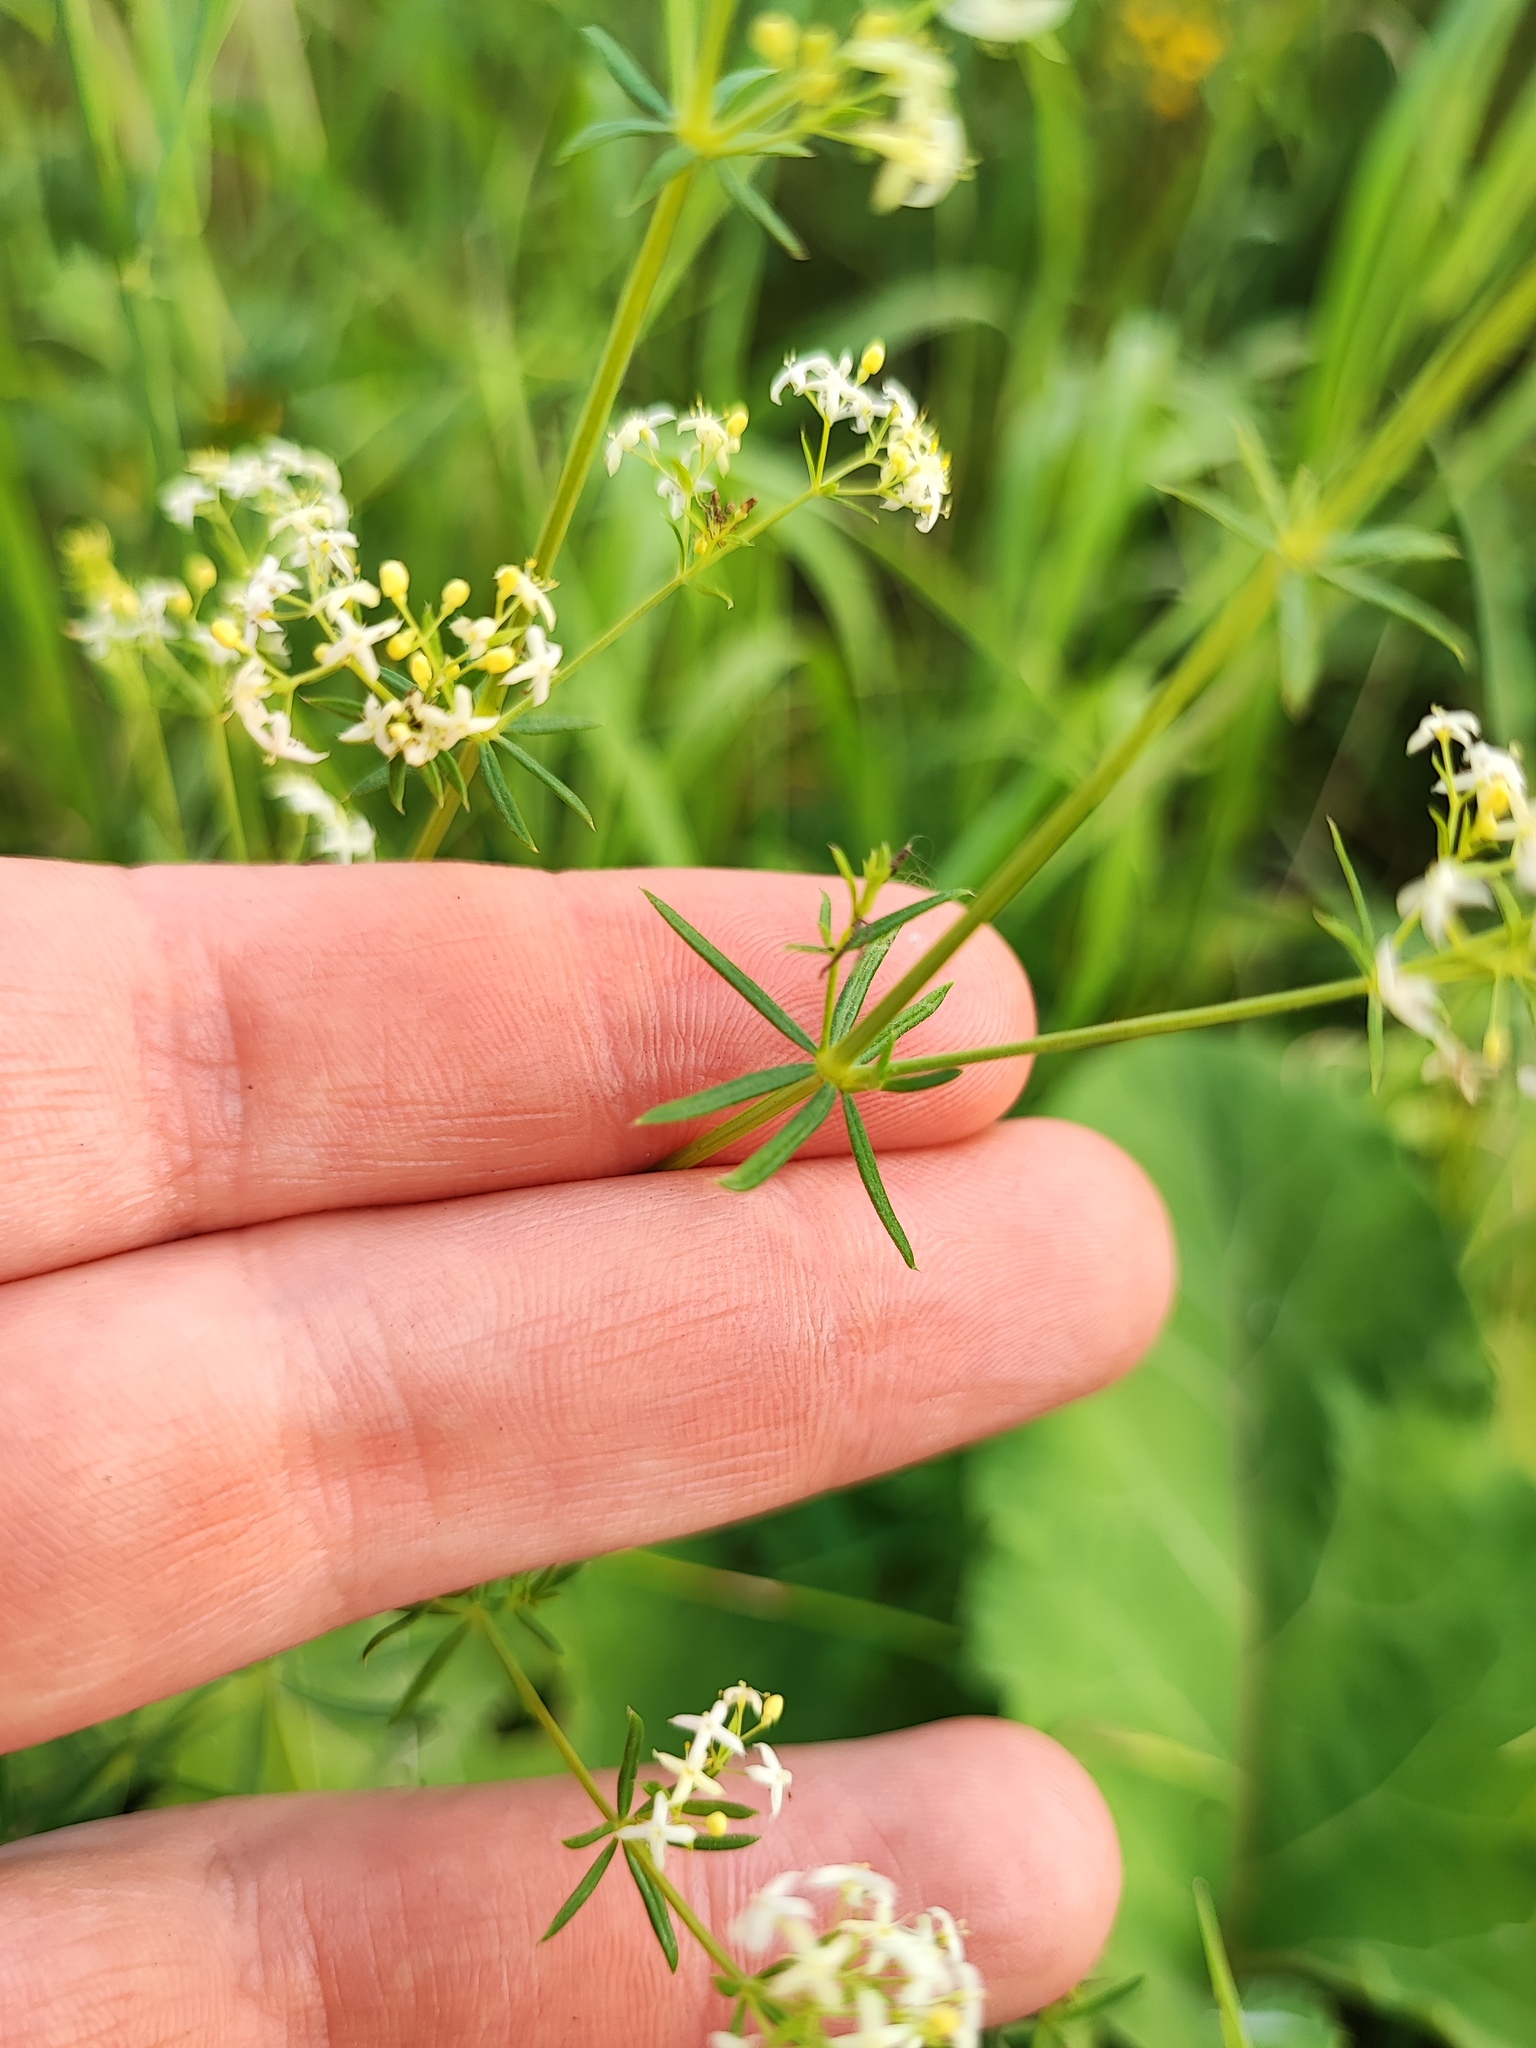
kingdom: Plantae
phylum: Tracheophyta
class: Magnoliopsida
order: Gentianales
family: Rubiaceae
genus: Galium
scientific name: Galium mollugo
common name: Hedge bedstraw
